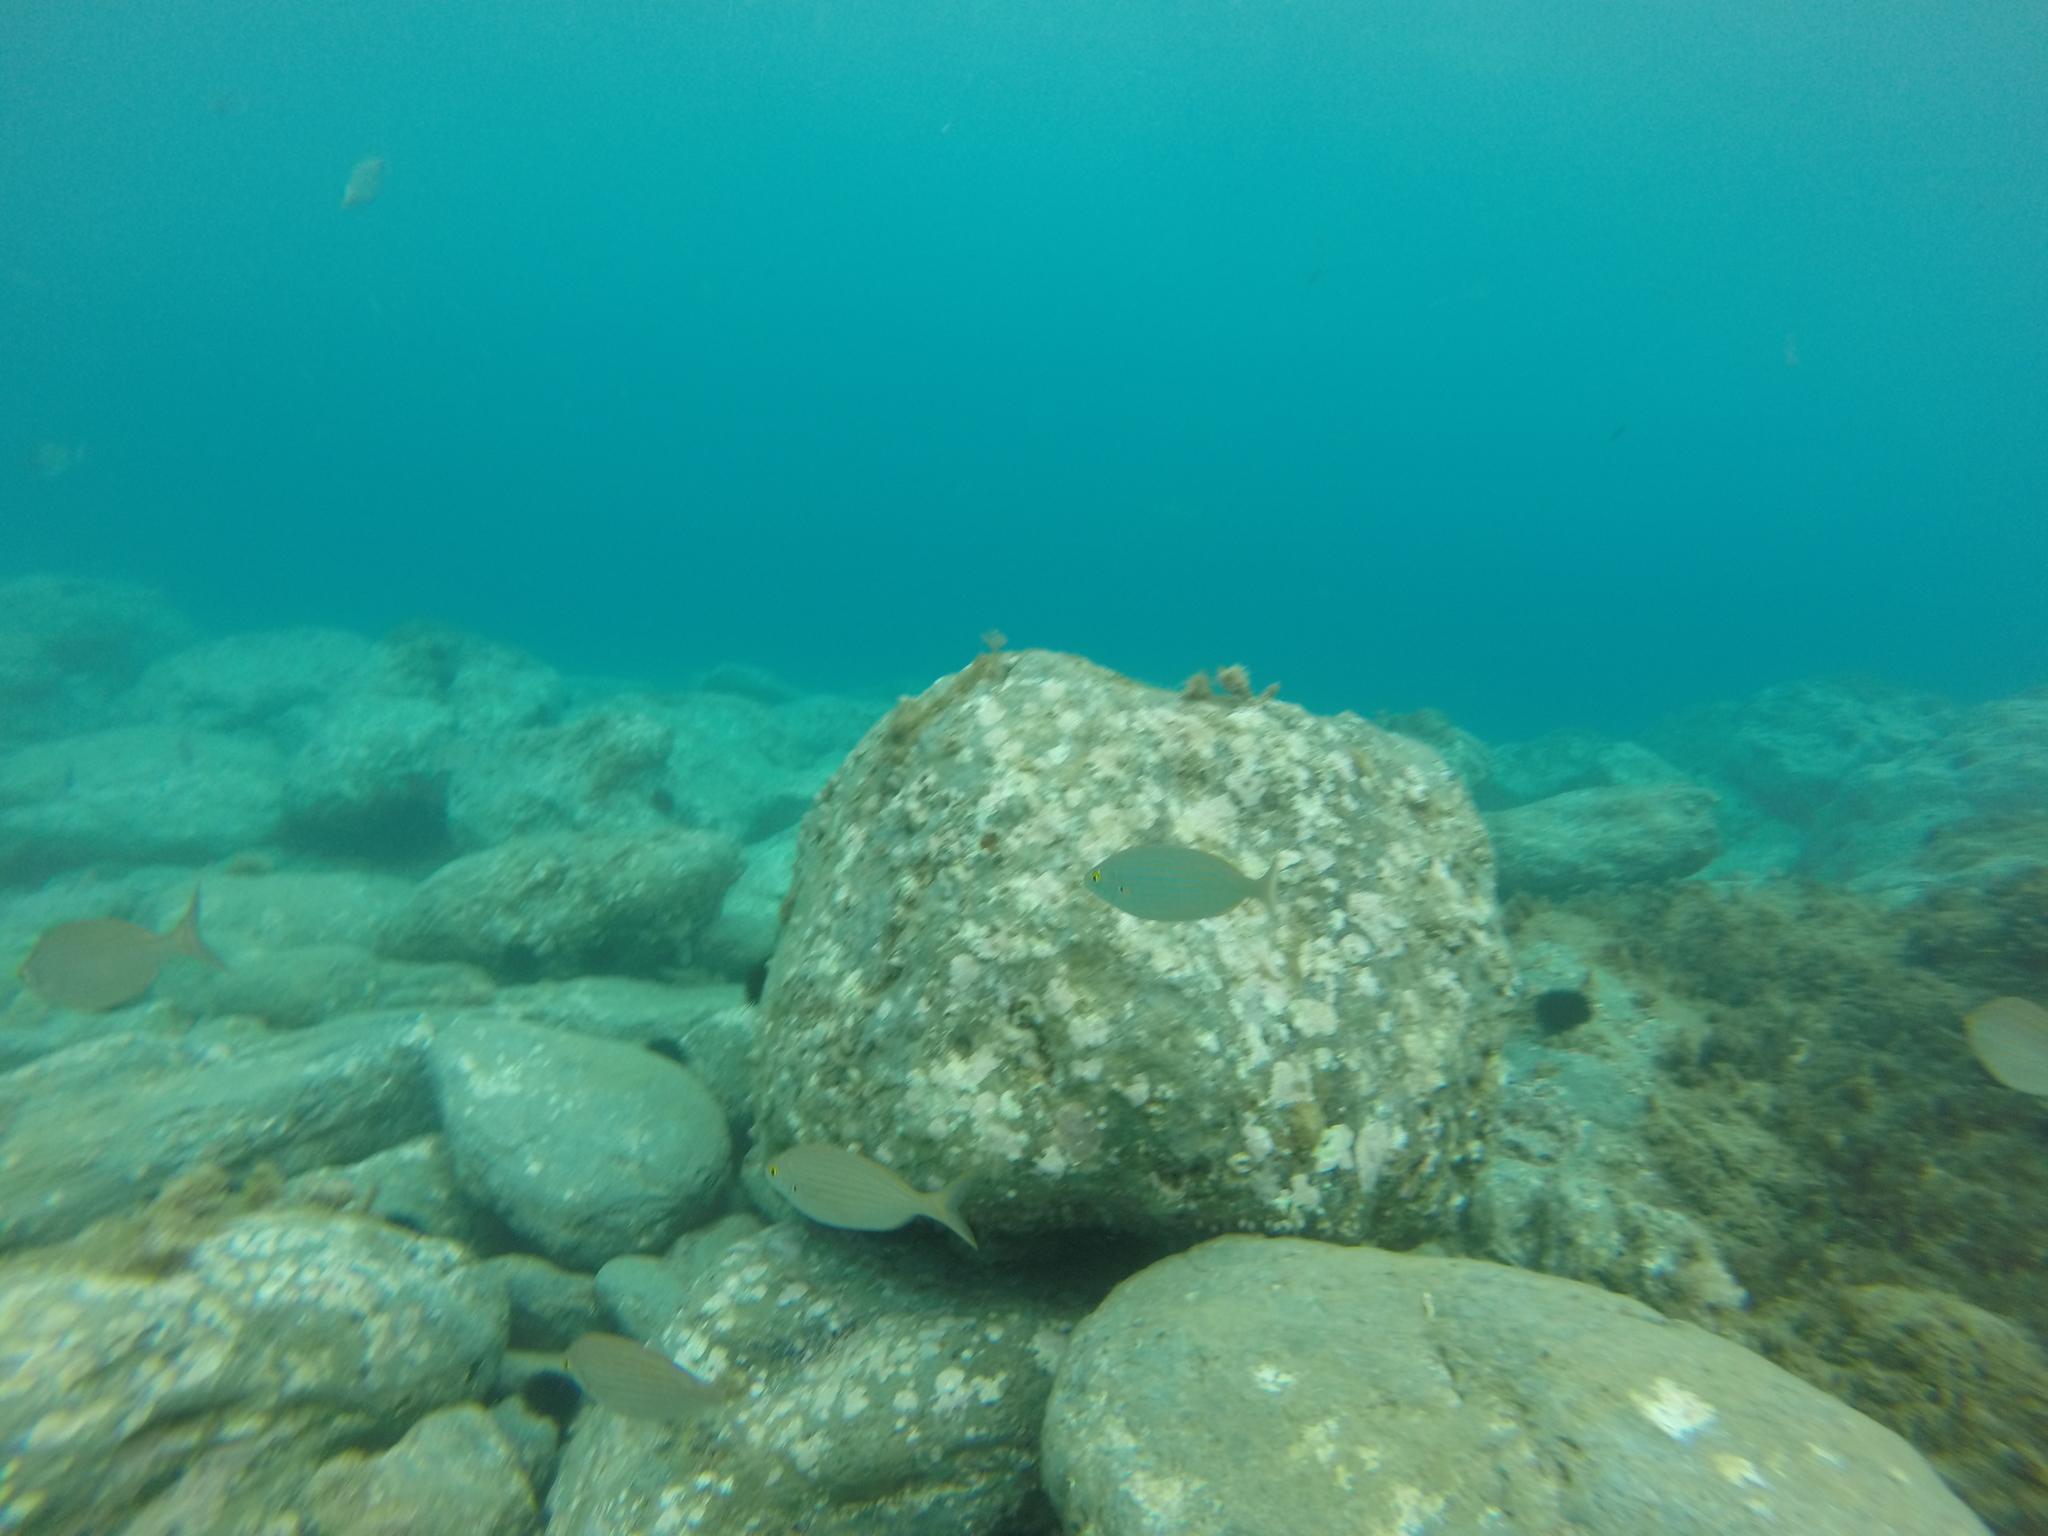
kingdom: Animalia
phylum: Chordata
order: Perciformes
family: Sparidae
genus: Sarpa
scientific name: Sarpa salpa
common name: Salema
